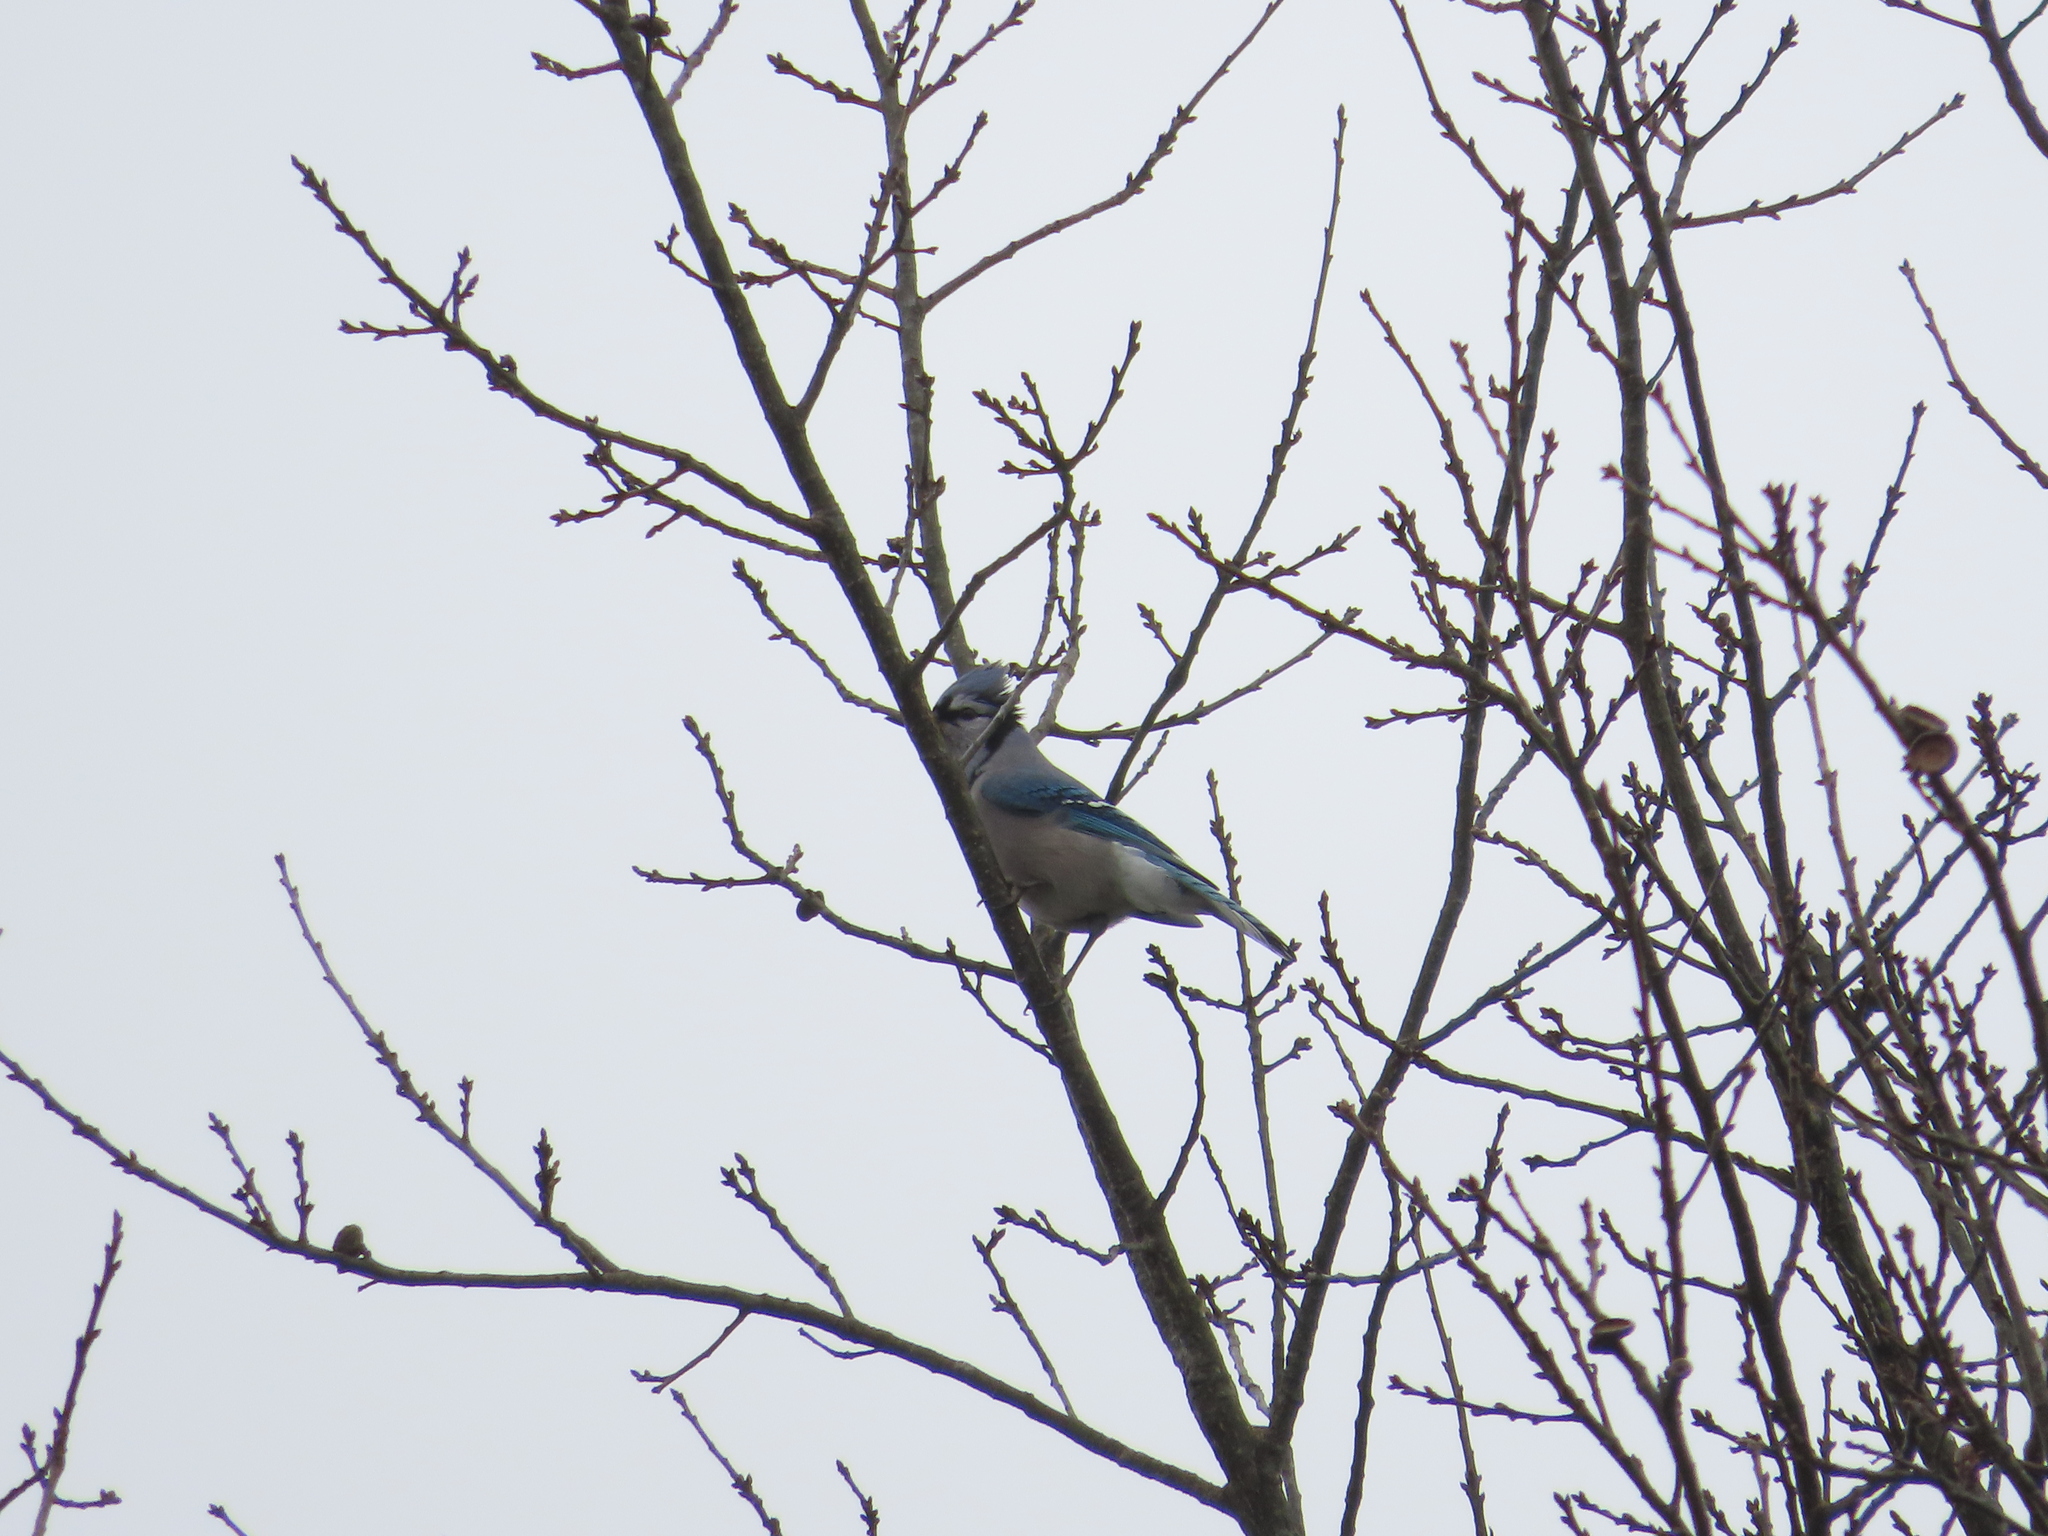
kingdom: Animalia
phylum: Chordata
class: Aves
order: Passeriformes
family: Corvidae
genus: Cyanocitta
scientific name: Cyanocitta cristata
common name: Blue jay
